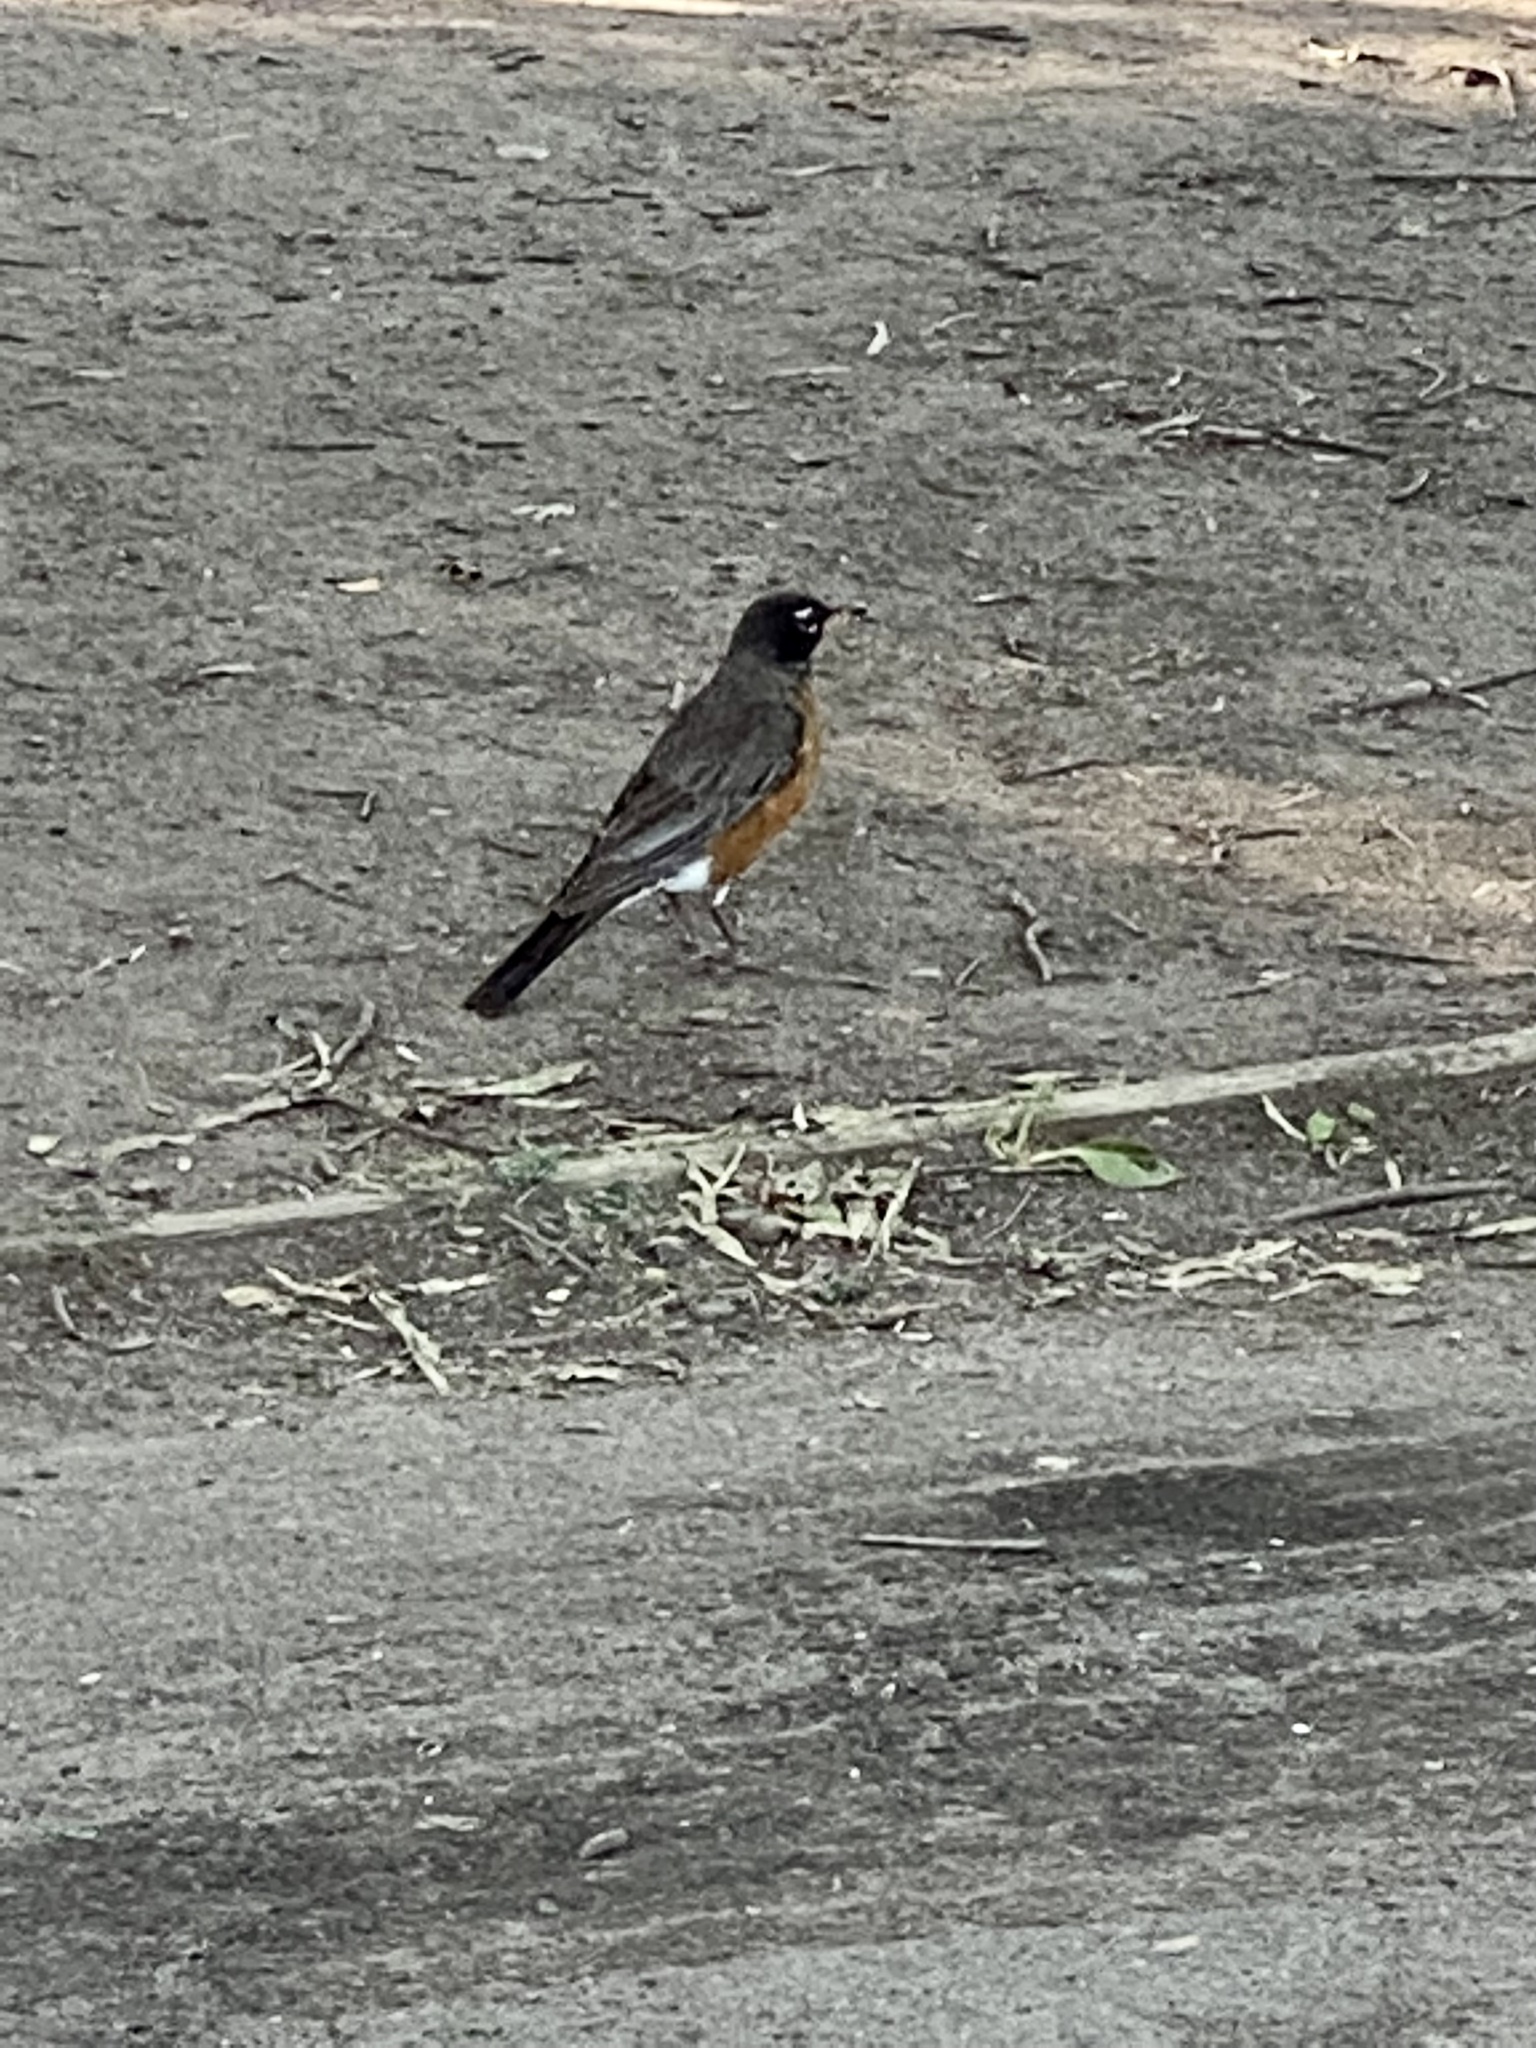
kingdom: Animalia
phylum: Chordata
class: Aves
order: Passeriformes
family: Turdidae
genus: Turdus
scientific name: Turdus migratorius
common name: American robin
